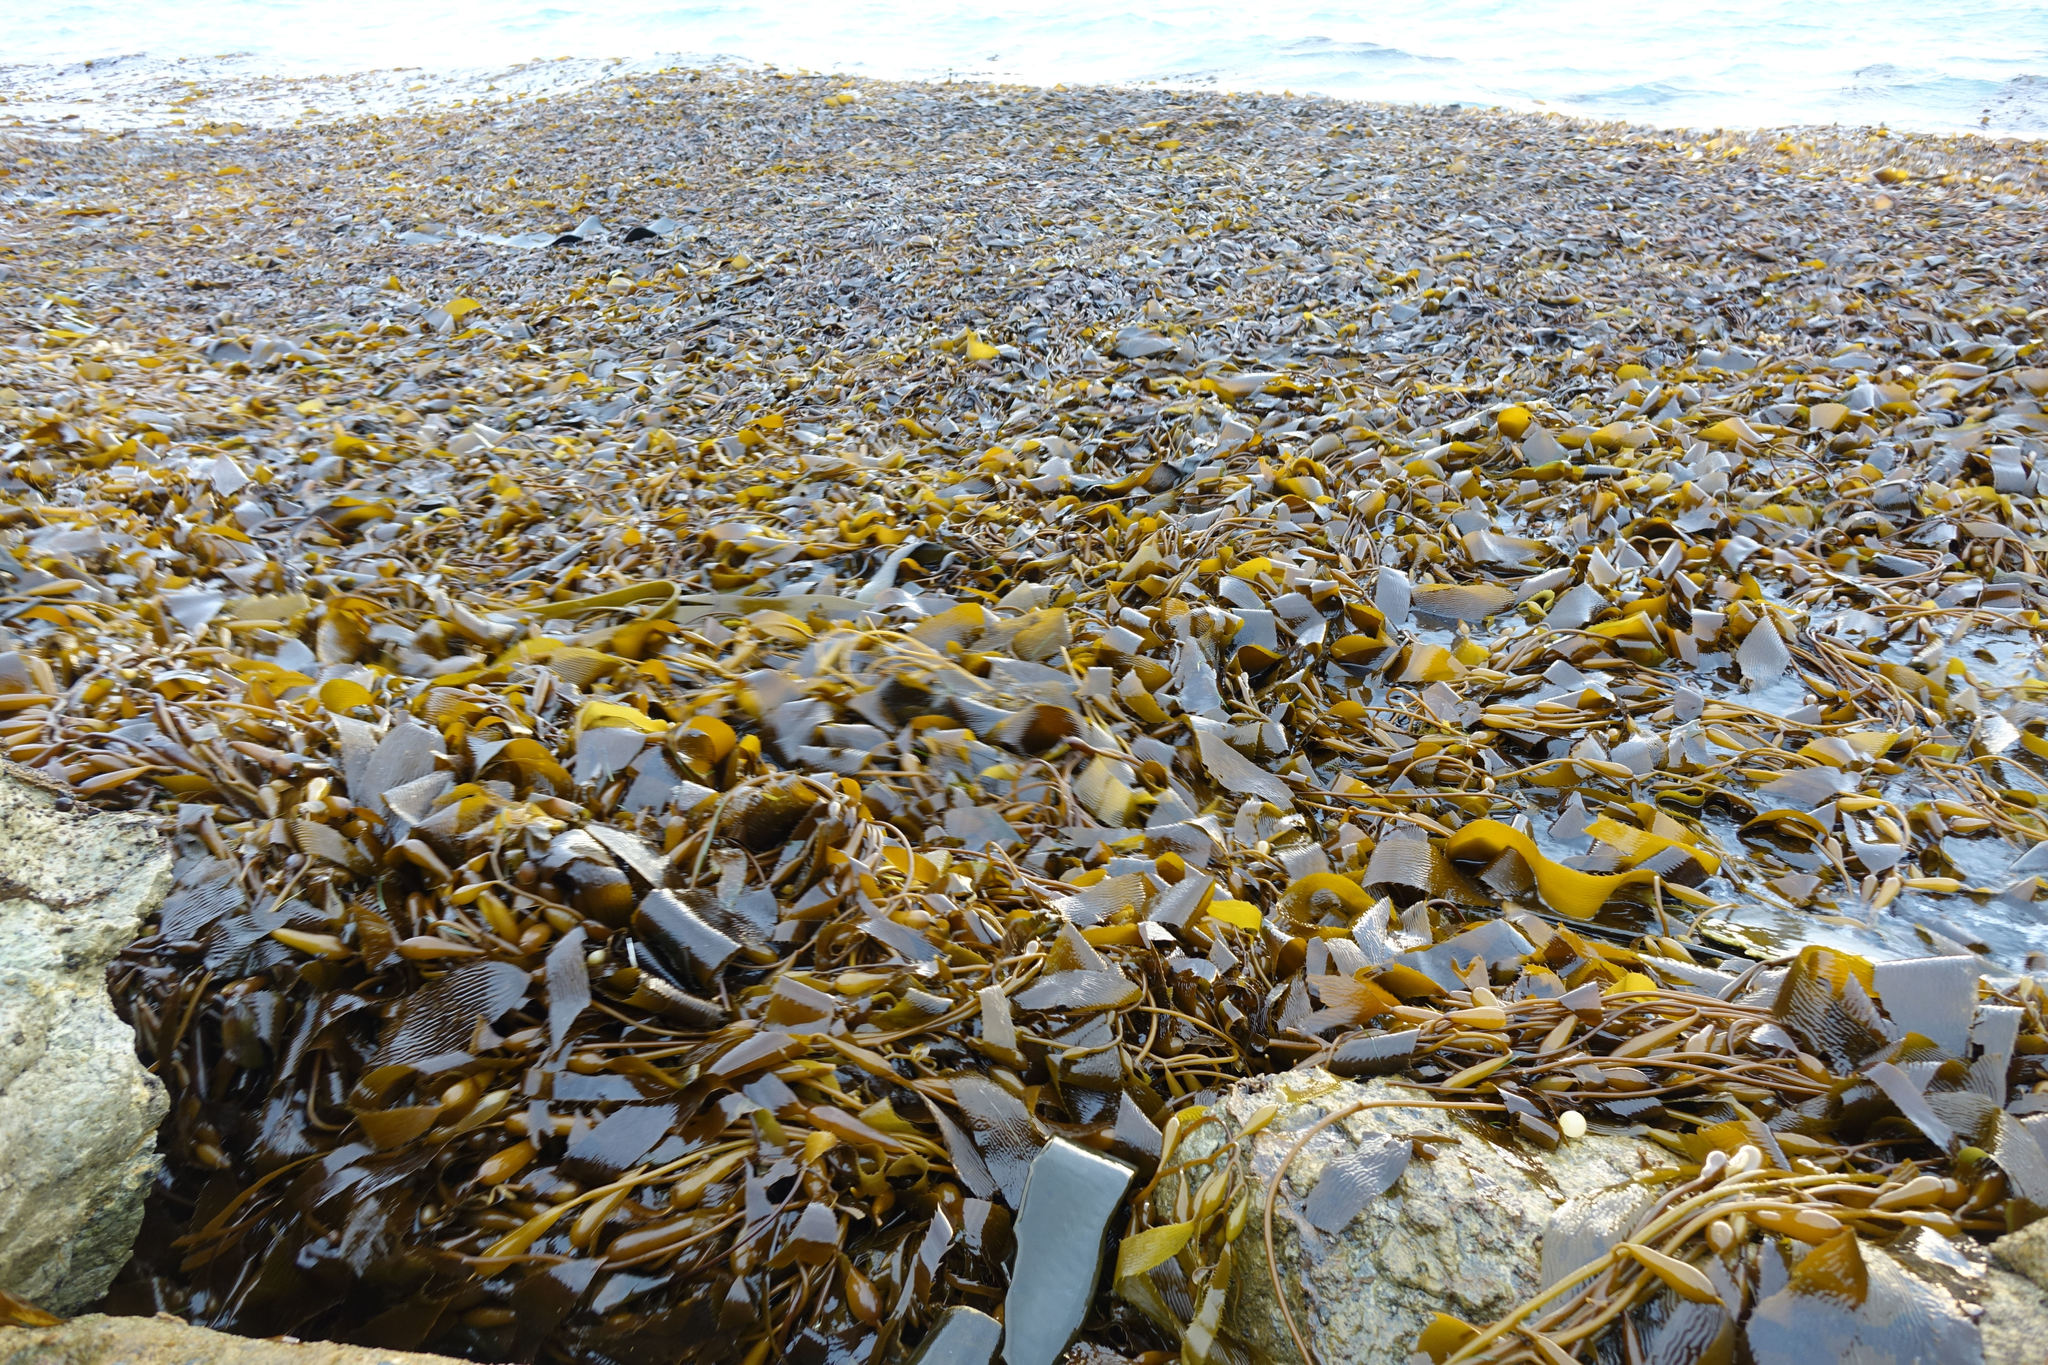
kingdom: Chromista
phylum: Ochrophyta
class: Phaeophyceae
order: Laminariales
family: Laminariaceae
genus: Macrocystis
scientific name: Macrocystis pyrifera
